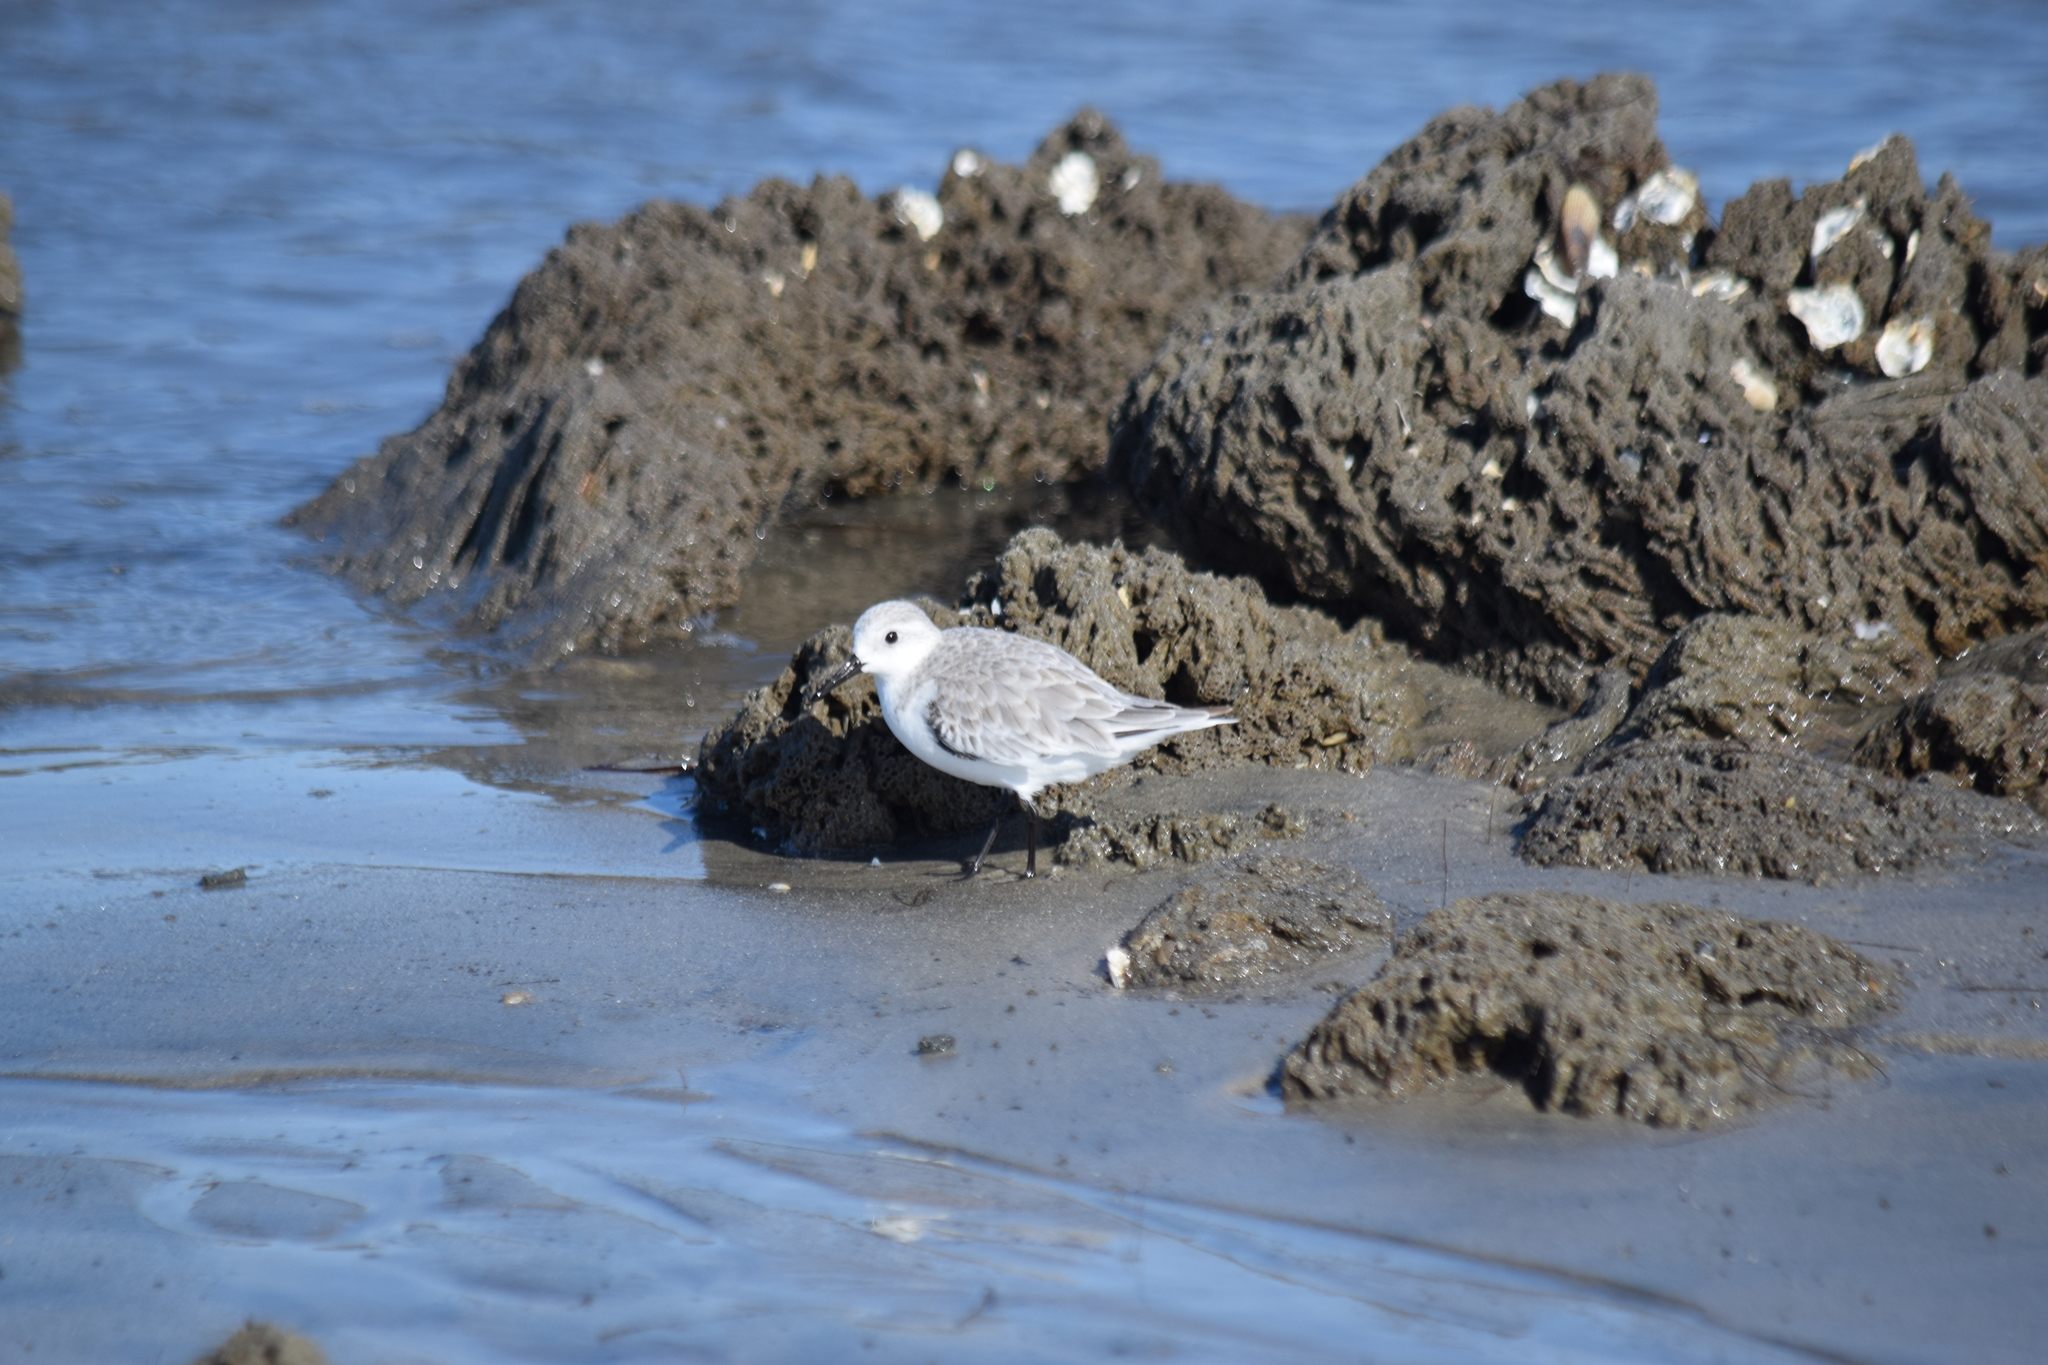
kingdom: Animalia
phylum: Chordata
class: Aves
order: Charadriiformes
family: Scolopacidae
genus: Calidris
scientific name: Calidris alba
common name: Sanderling
